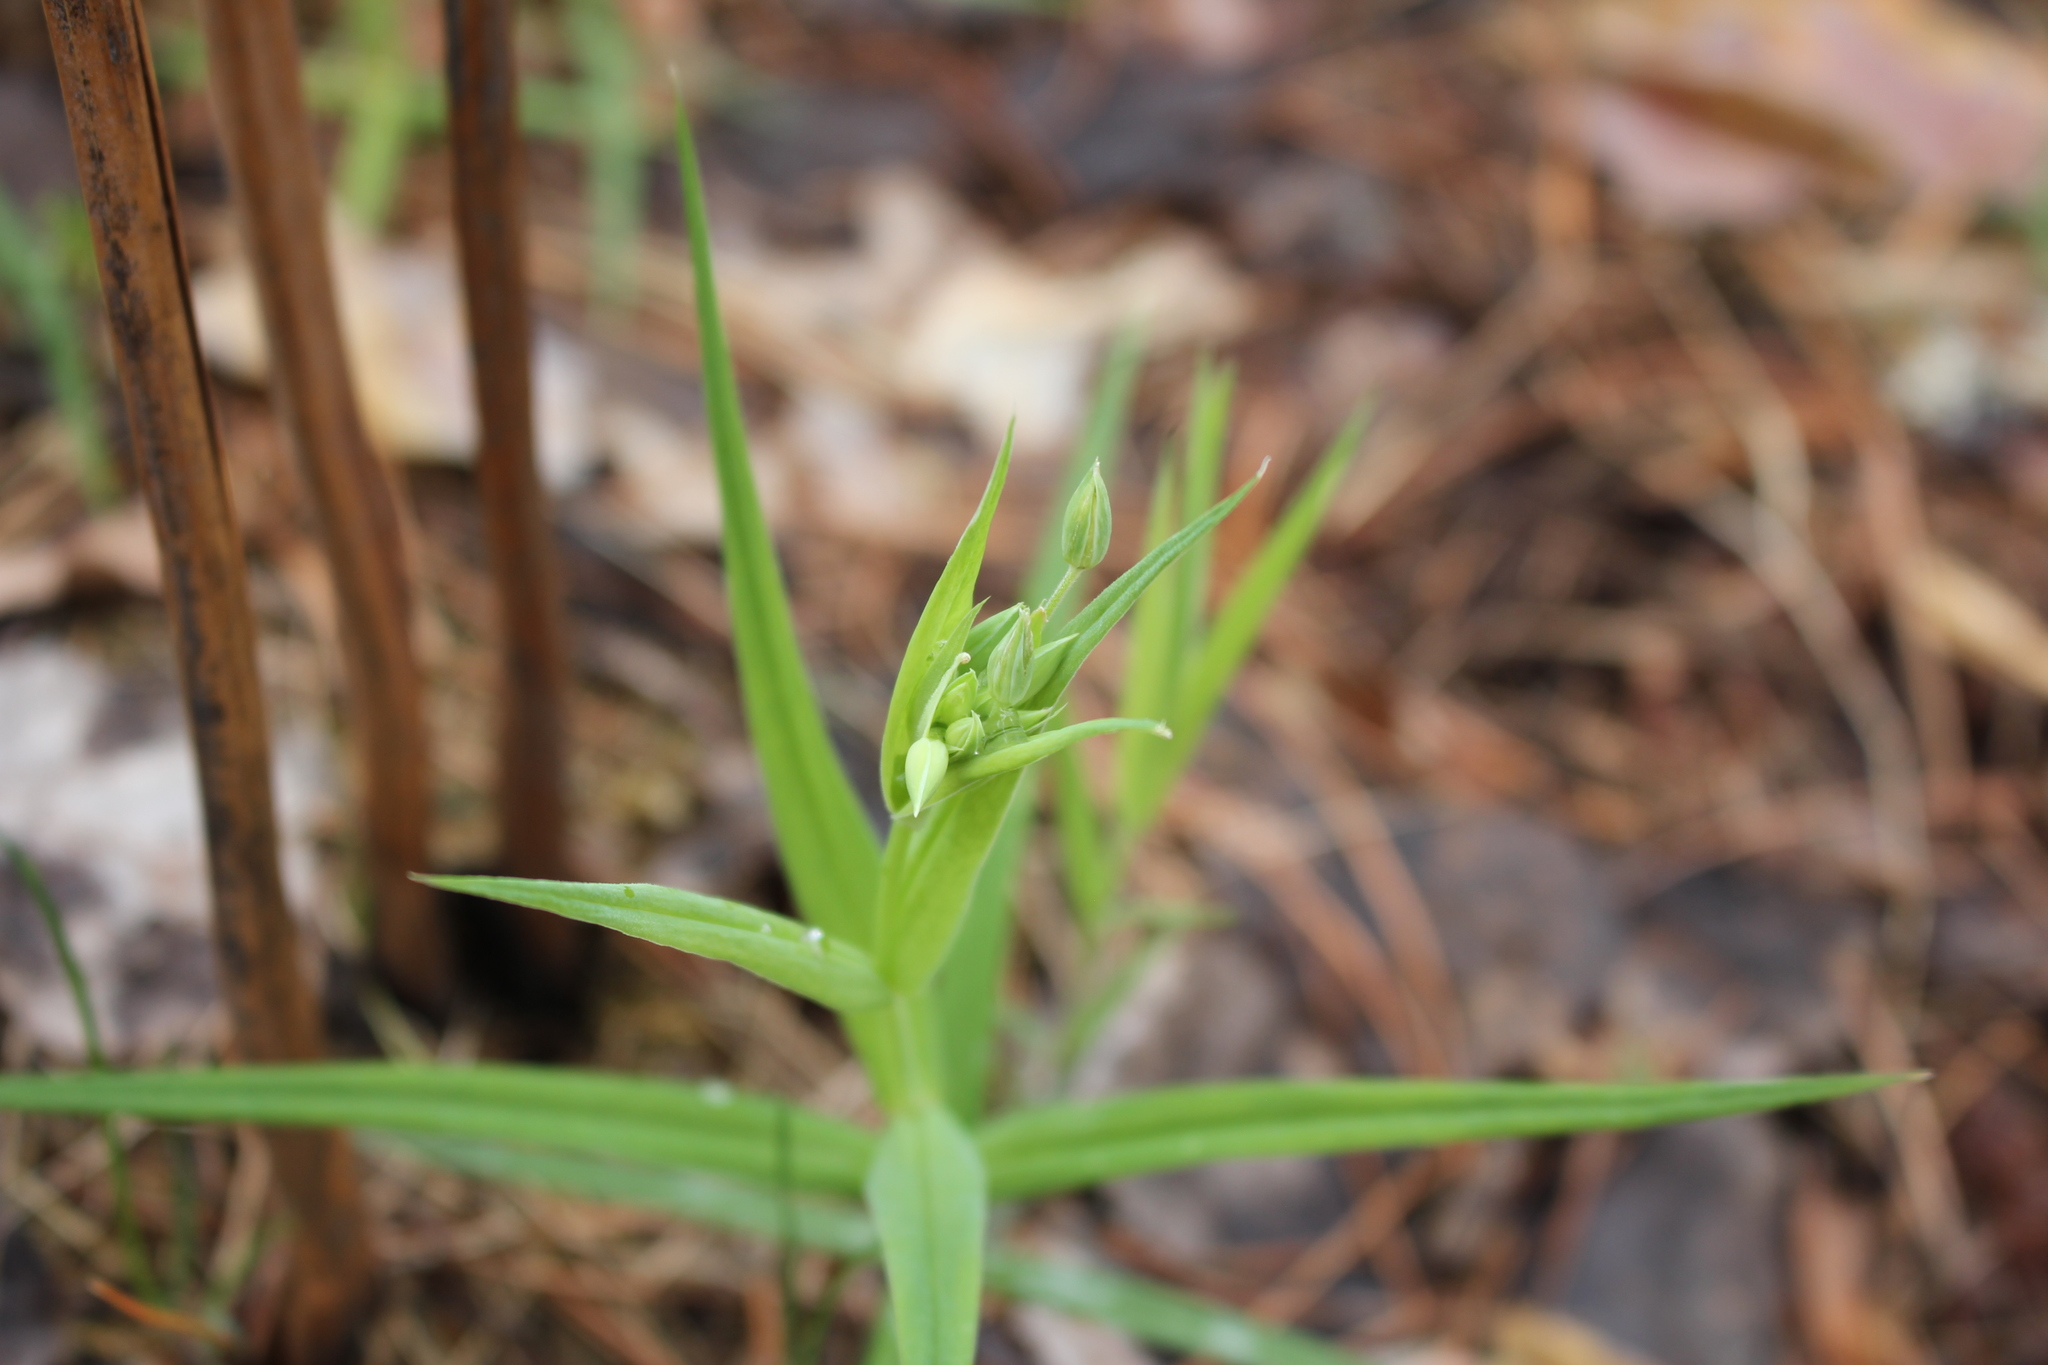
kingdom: Plantae
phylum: Tracheophyta
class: Magnoliopsida
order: Caryophyllales
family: Caryophyllaceae
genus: Rabelera
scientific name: Rabelera holostea
